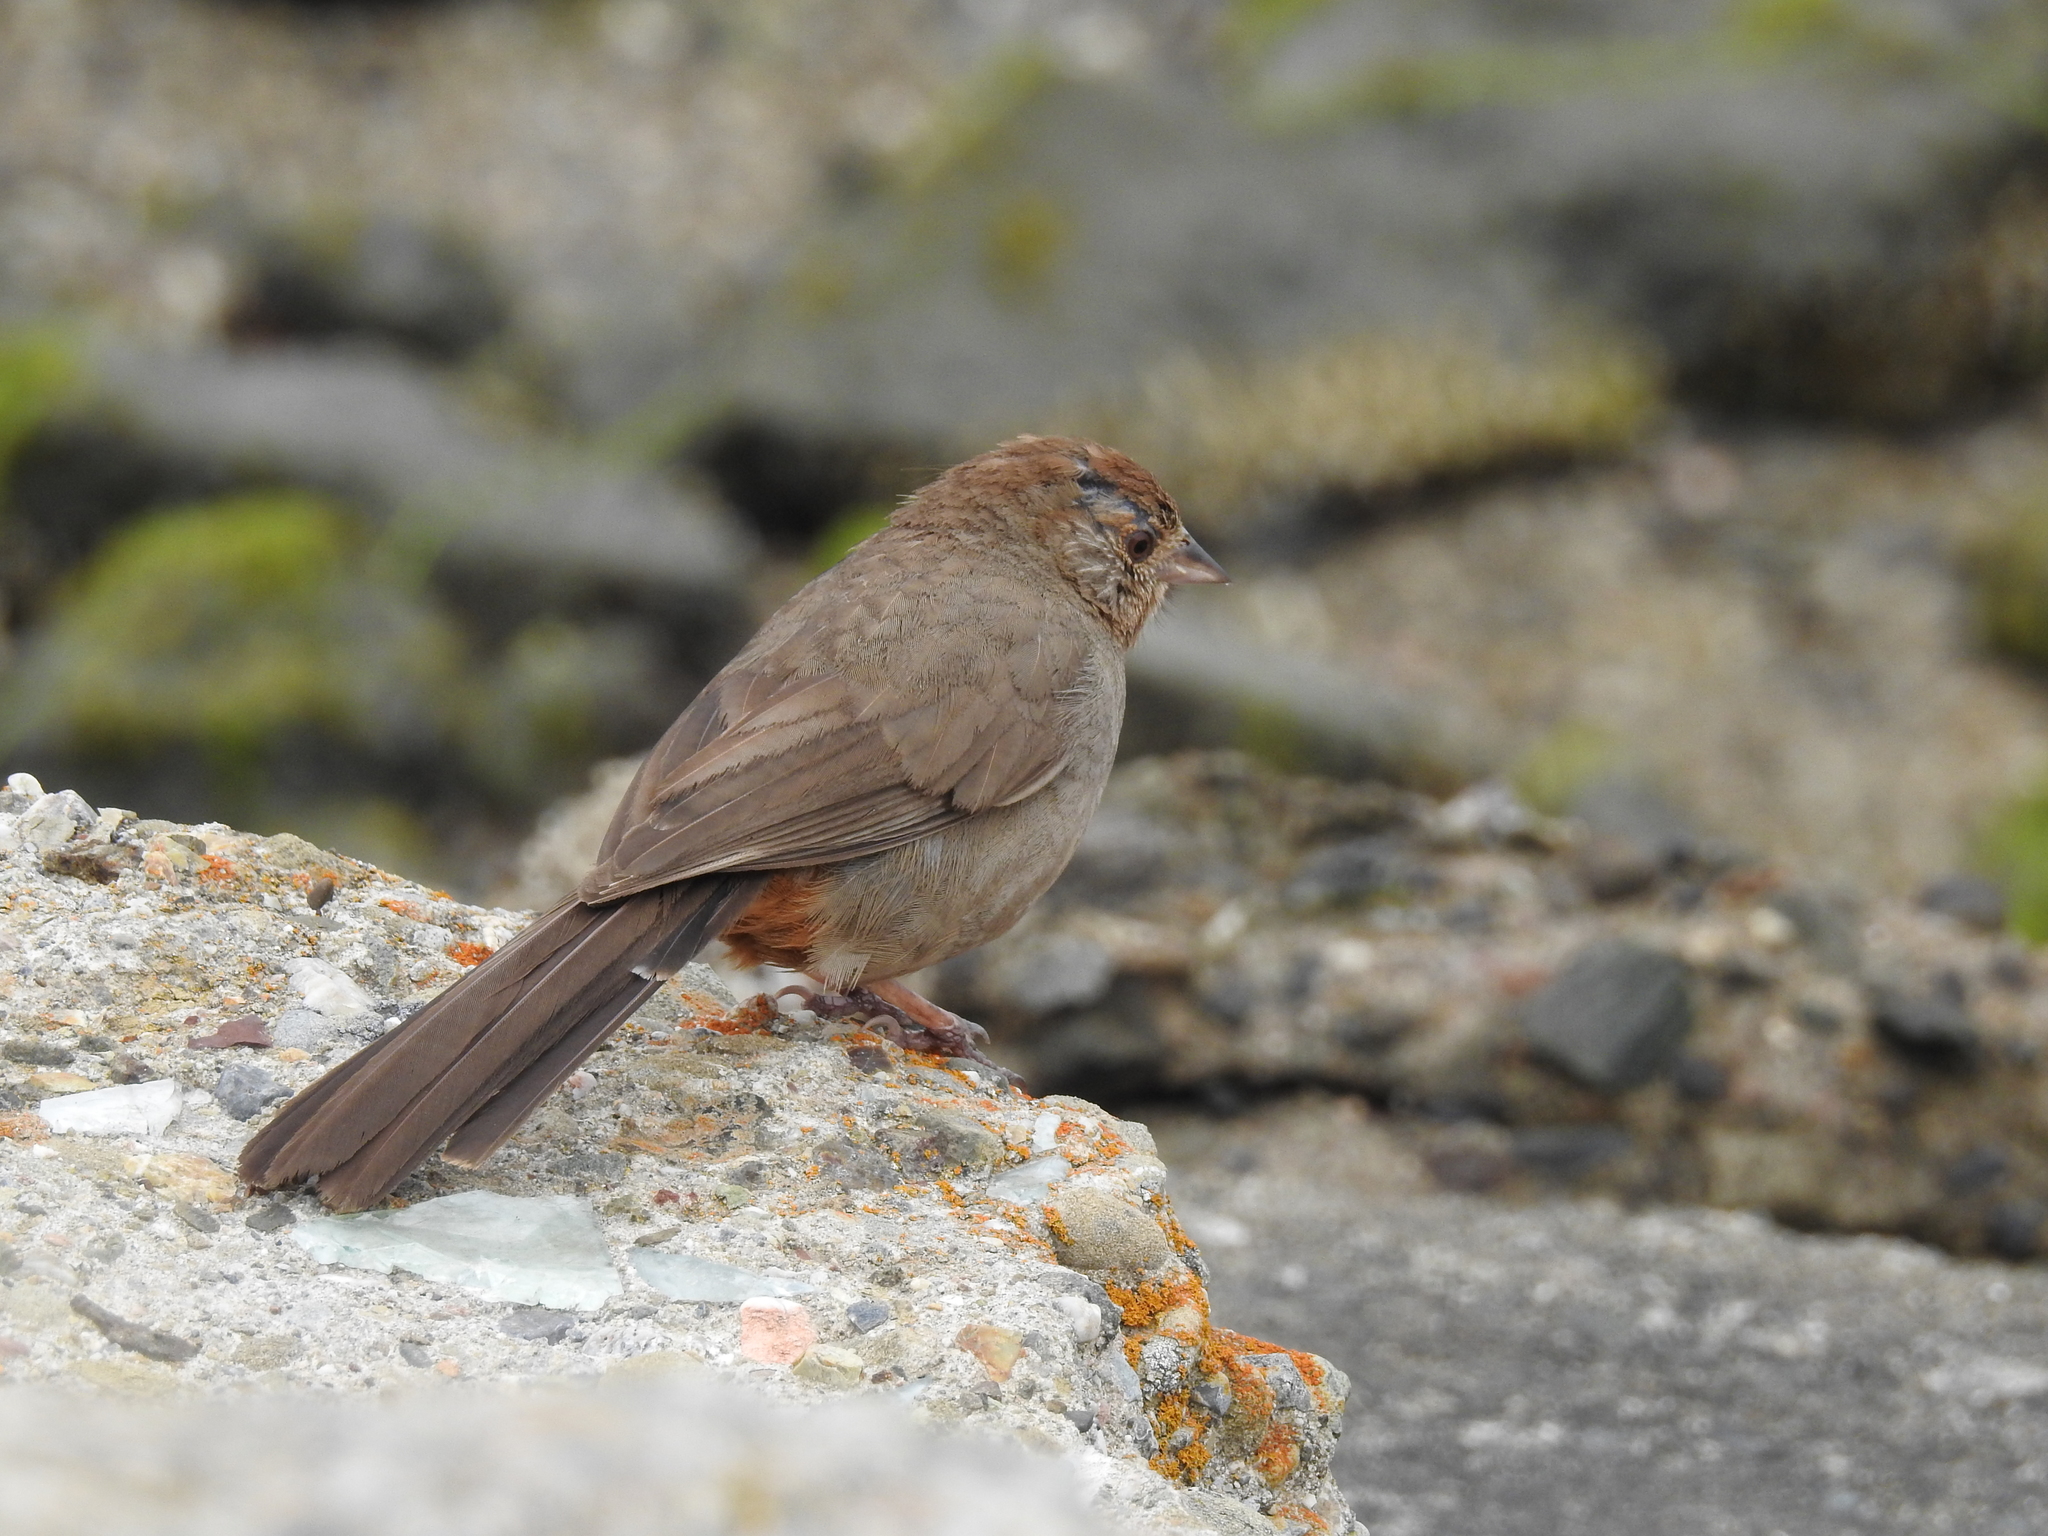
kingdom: Animalia
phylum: Chordata
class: Aves
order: Passeriformes
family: Passerellidae
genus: Melozone
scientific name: Melozone crissalis
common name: California towhee
